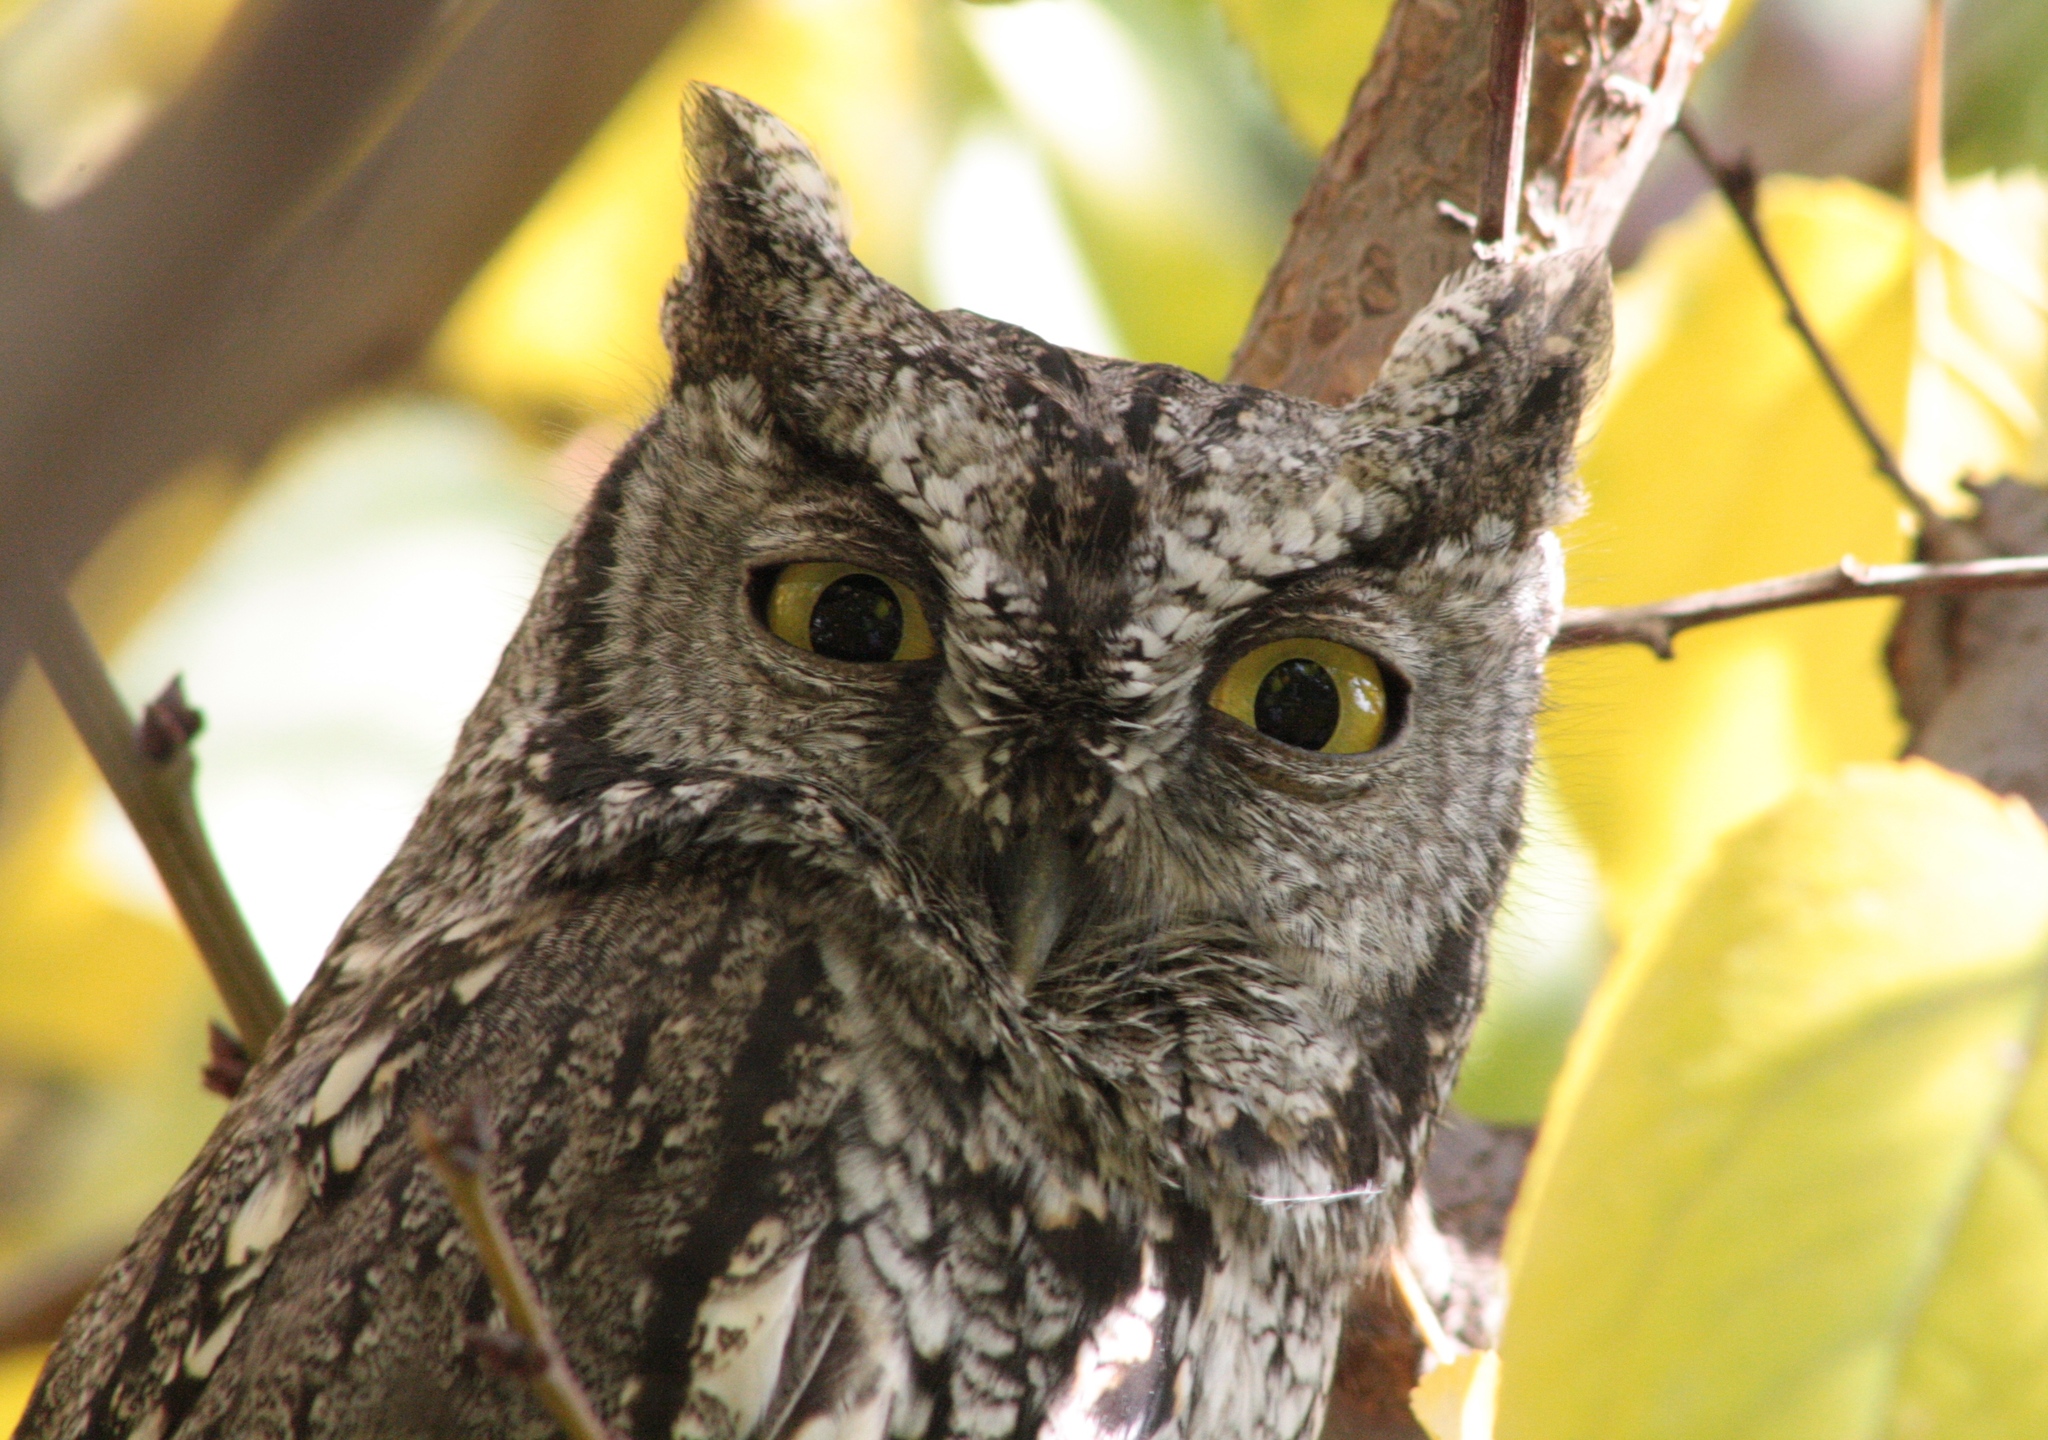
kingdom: Animalia
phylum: Chordata
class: Aves
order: Strigiformes
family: Strigidae
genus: Megascops
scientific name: Megascops kennicottii
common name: Western screech-owl
